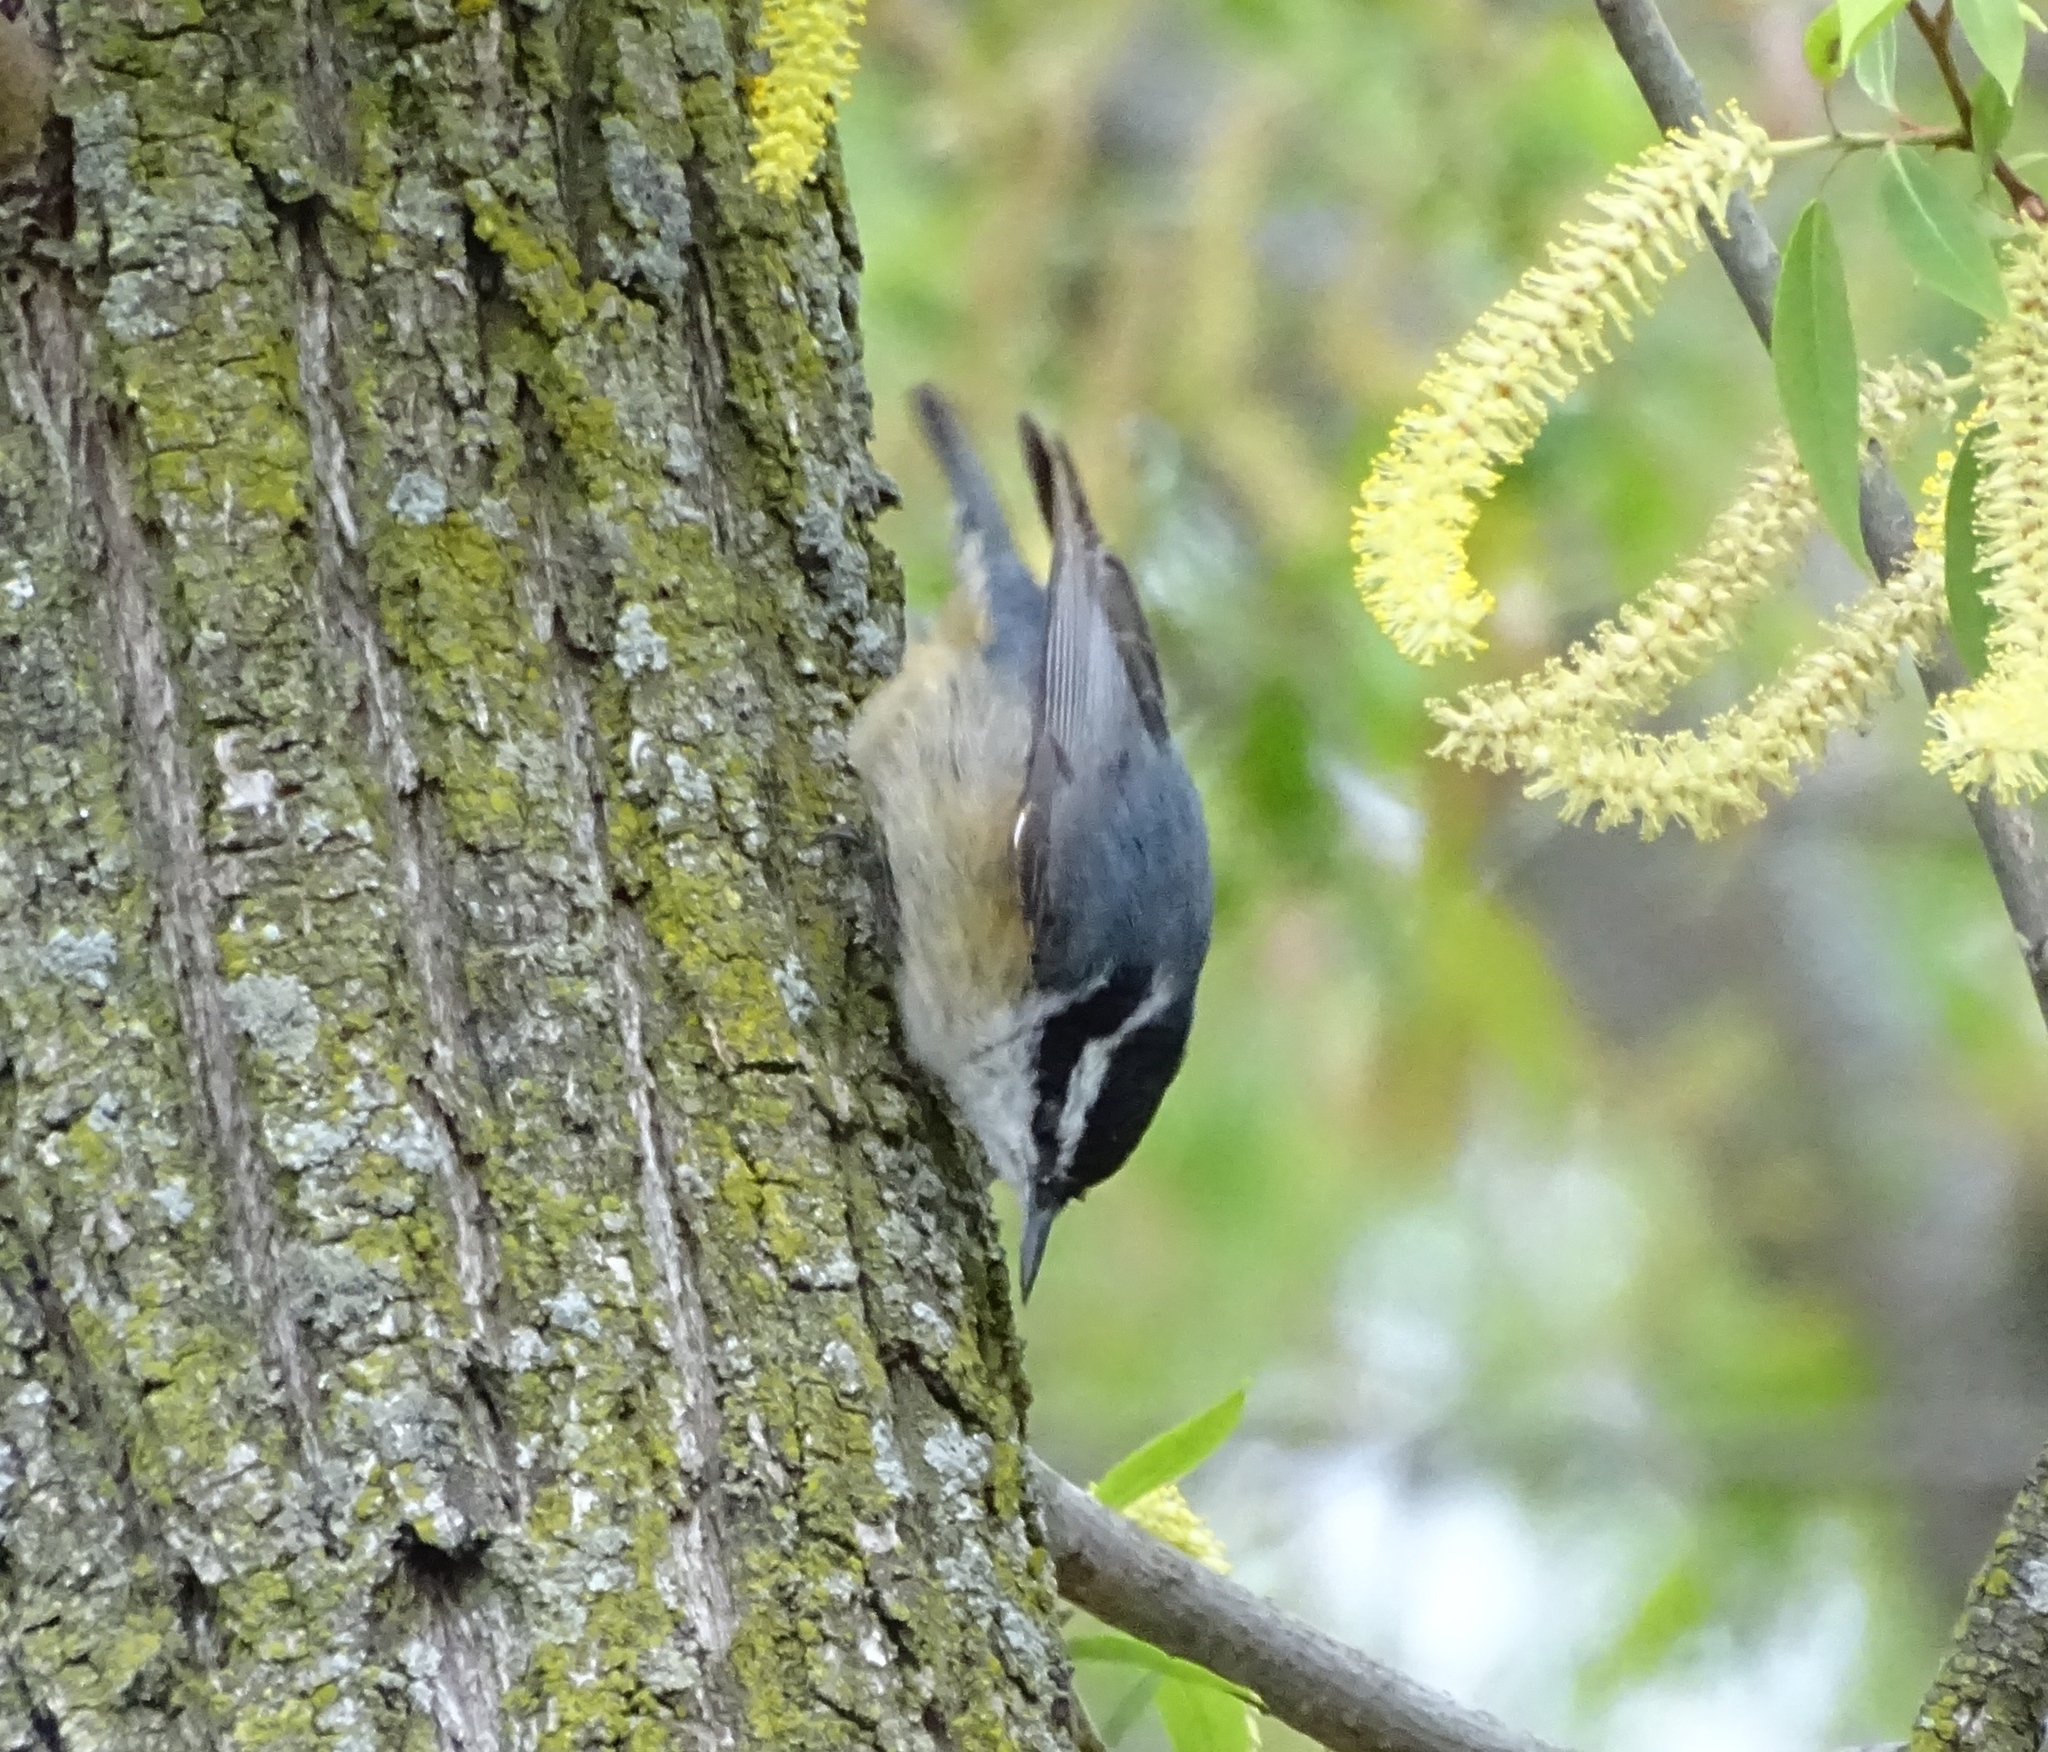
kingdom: Animalia
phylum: Chordata
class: Aves
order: Passeriformes
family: Sittidae
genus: Sitta
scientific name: Sitta canadensis
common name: Red-breasted nuthatch
